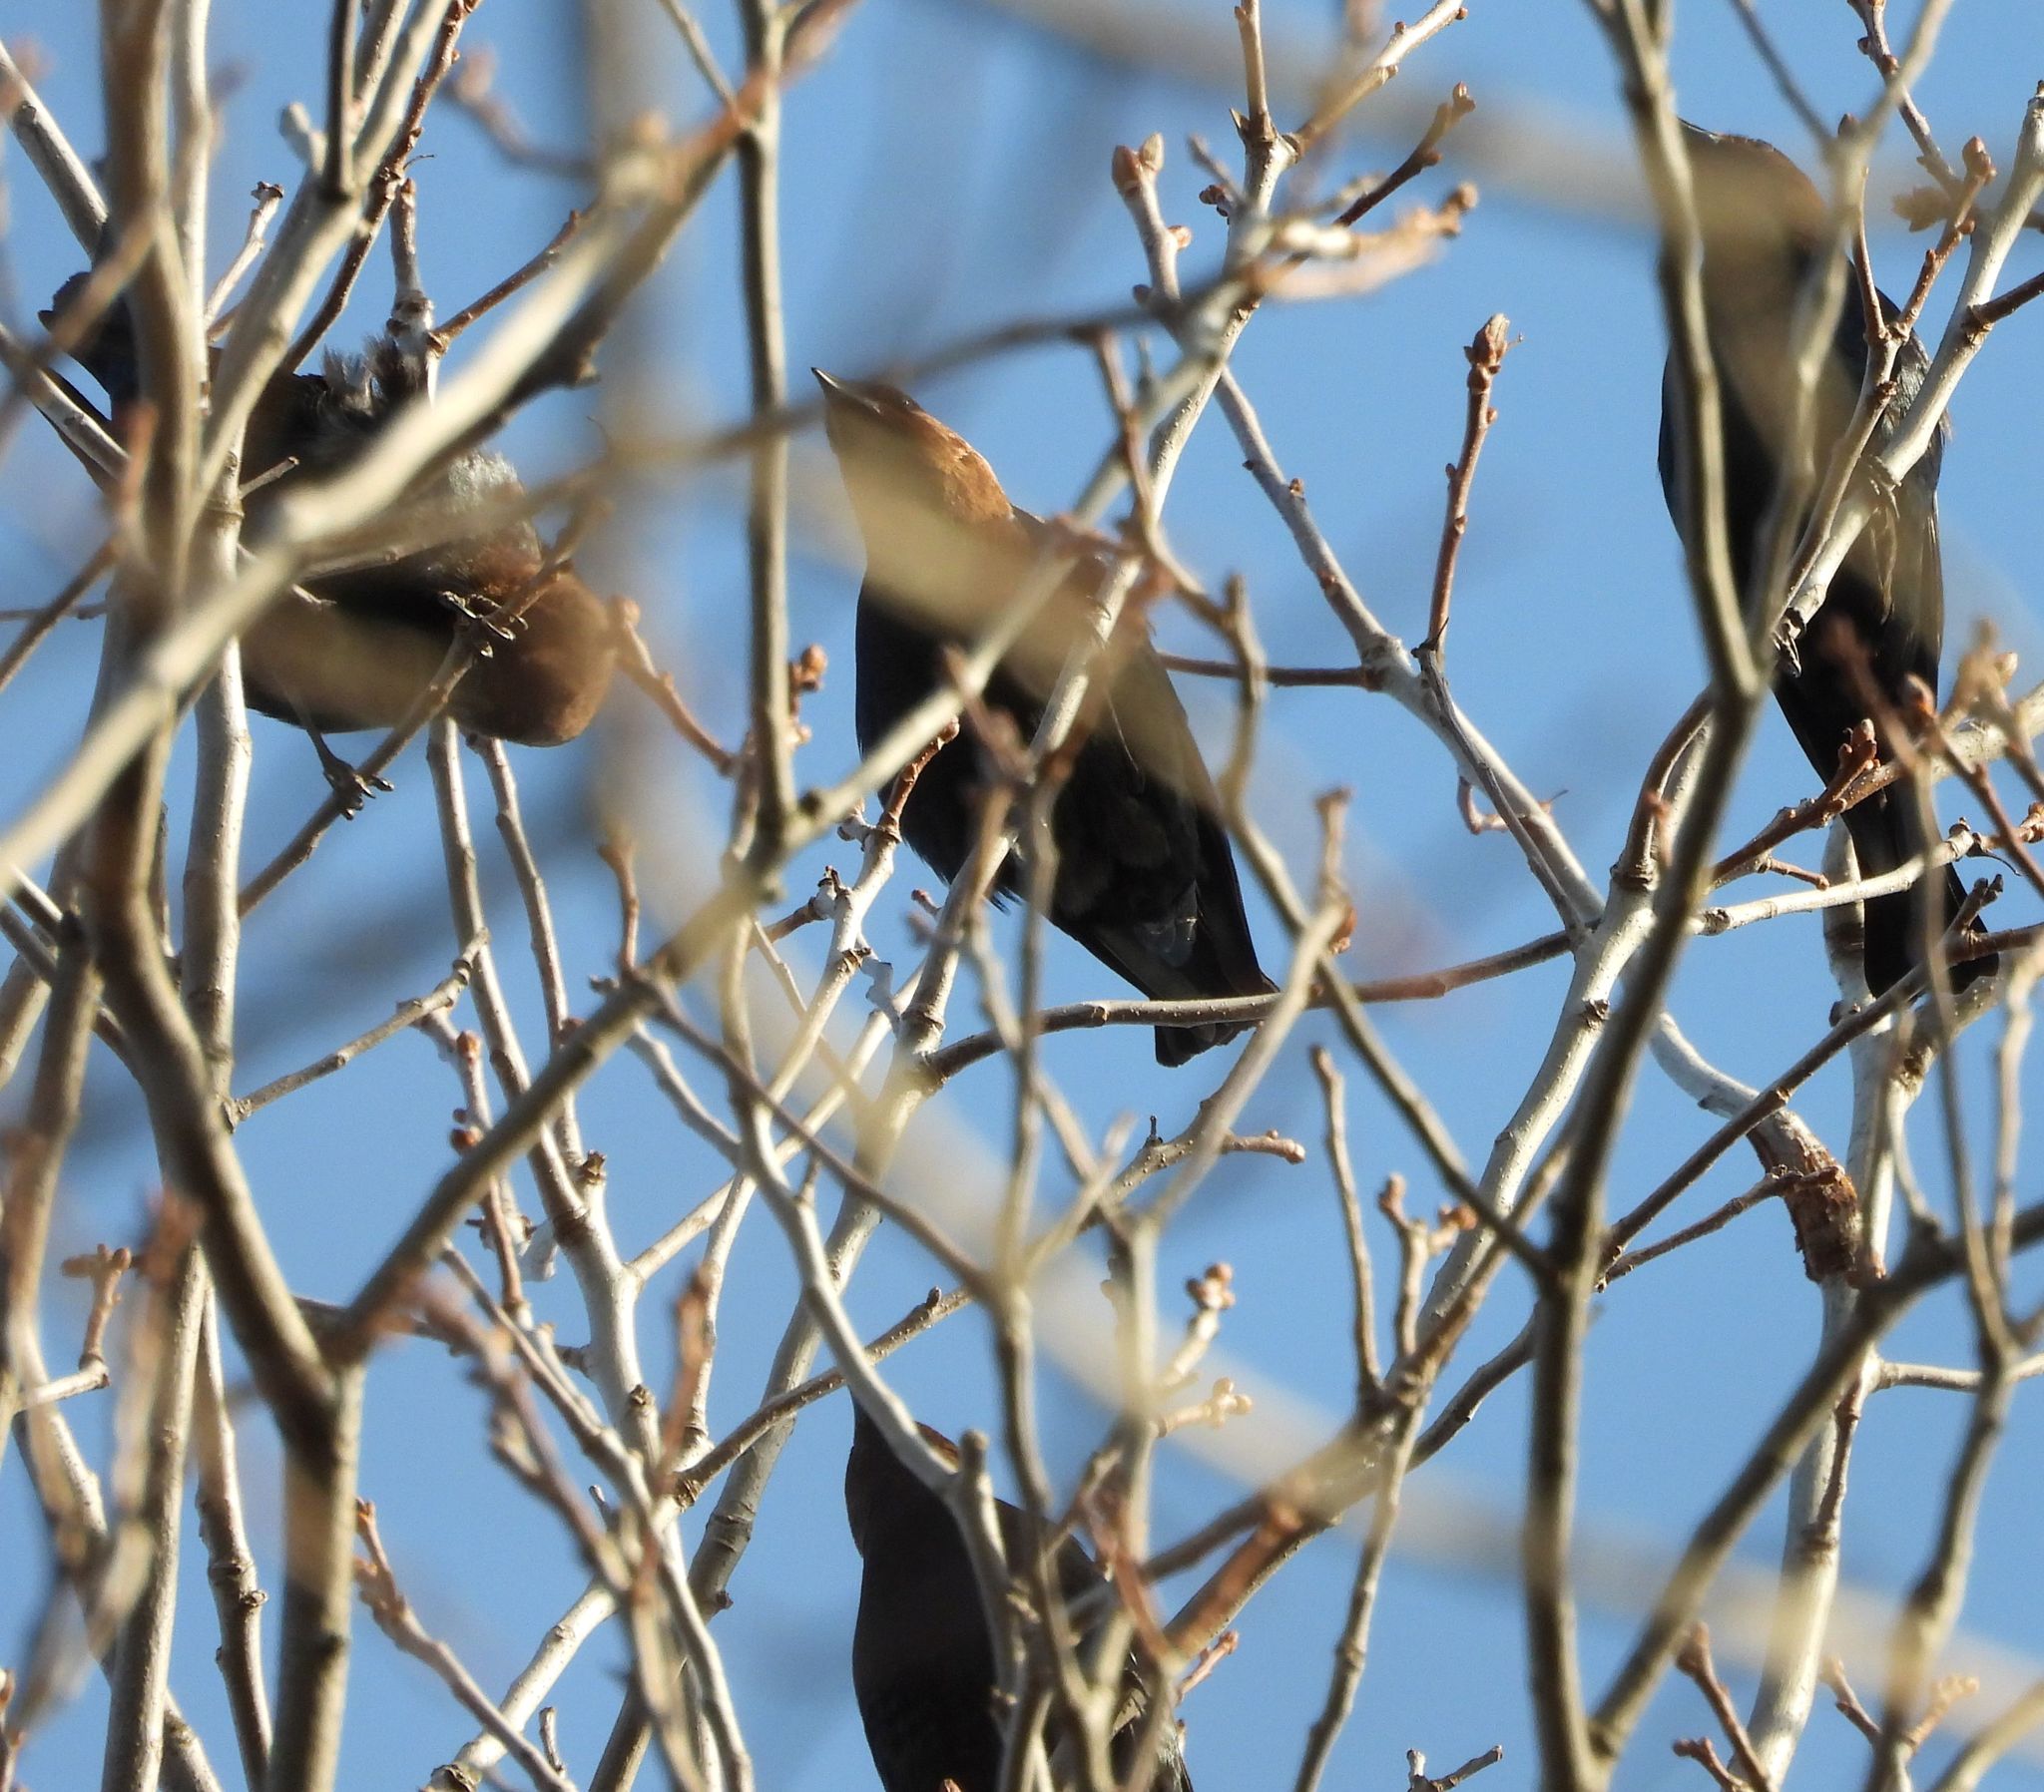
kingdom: Animalia
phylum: Chordata
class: Aves
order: Passeriformes
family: Icteridae
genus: Molothrus
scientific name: Molothrus ater
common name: Brown-headed cowbird
